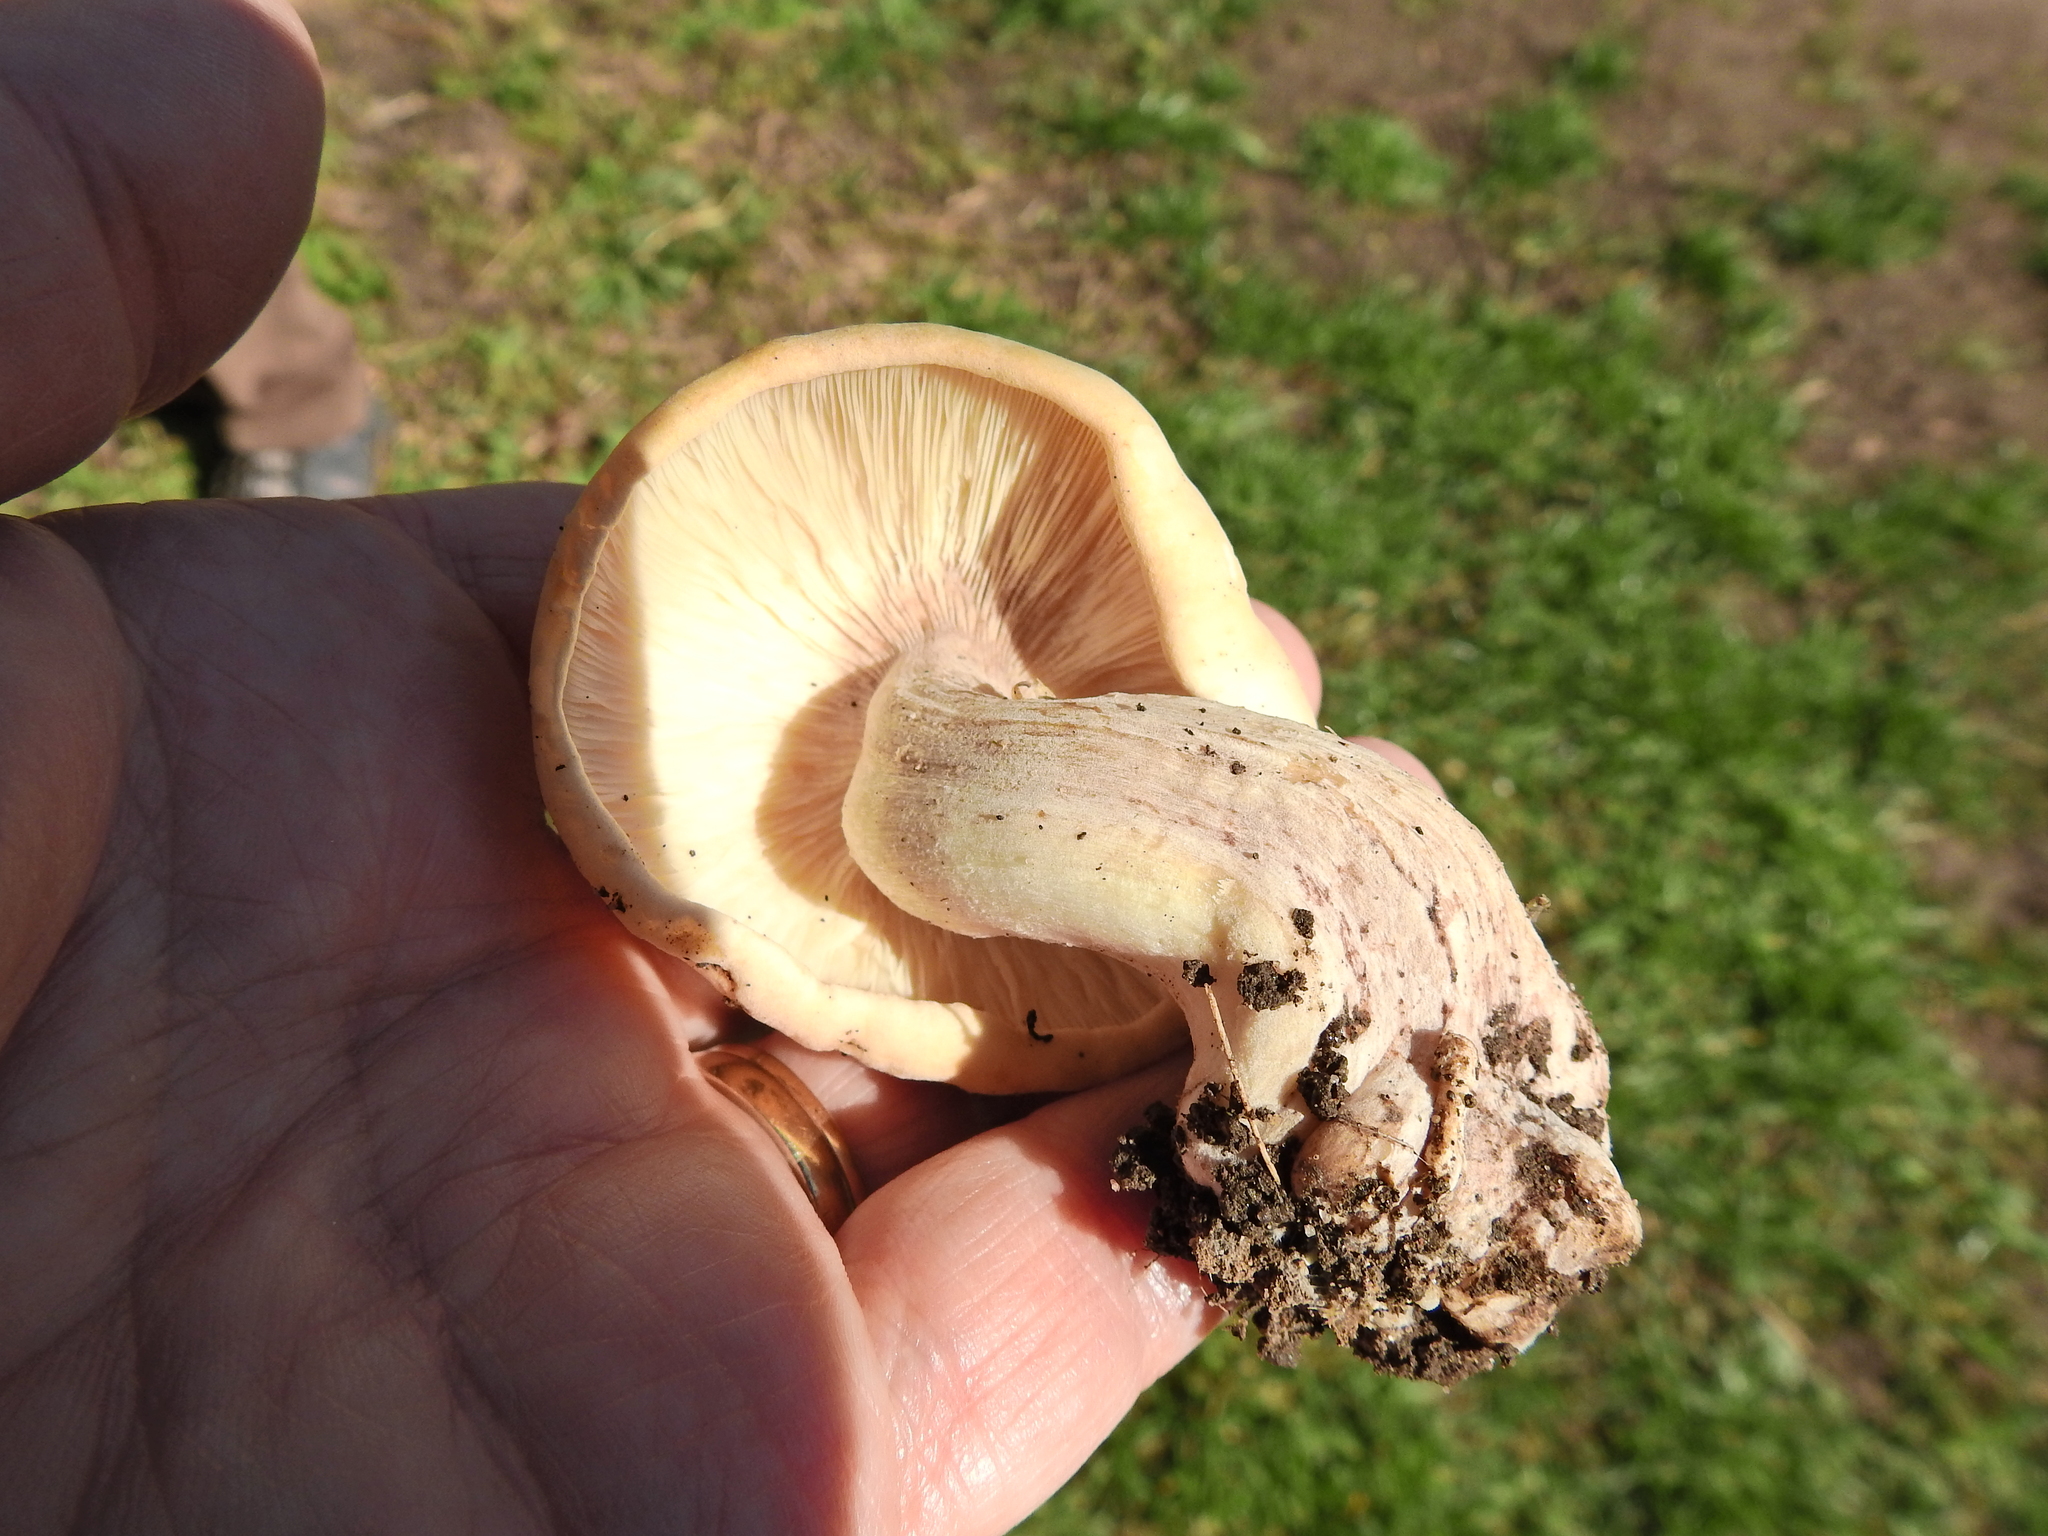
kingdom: Fungi
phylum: Basidiomycota
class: Agaricomycetes
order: Agaricales
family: Lyophyllaceae
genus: Calocybe
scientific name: Calocybe gambosa
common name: St. george's mushroom
